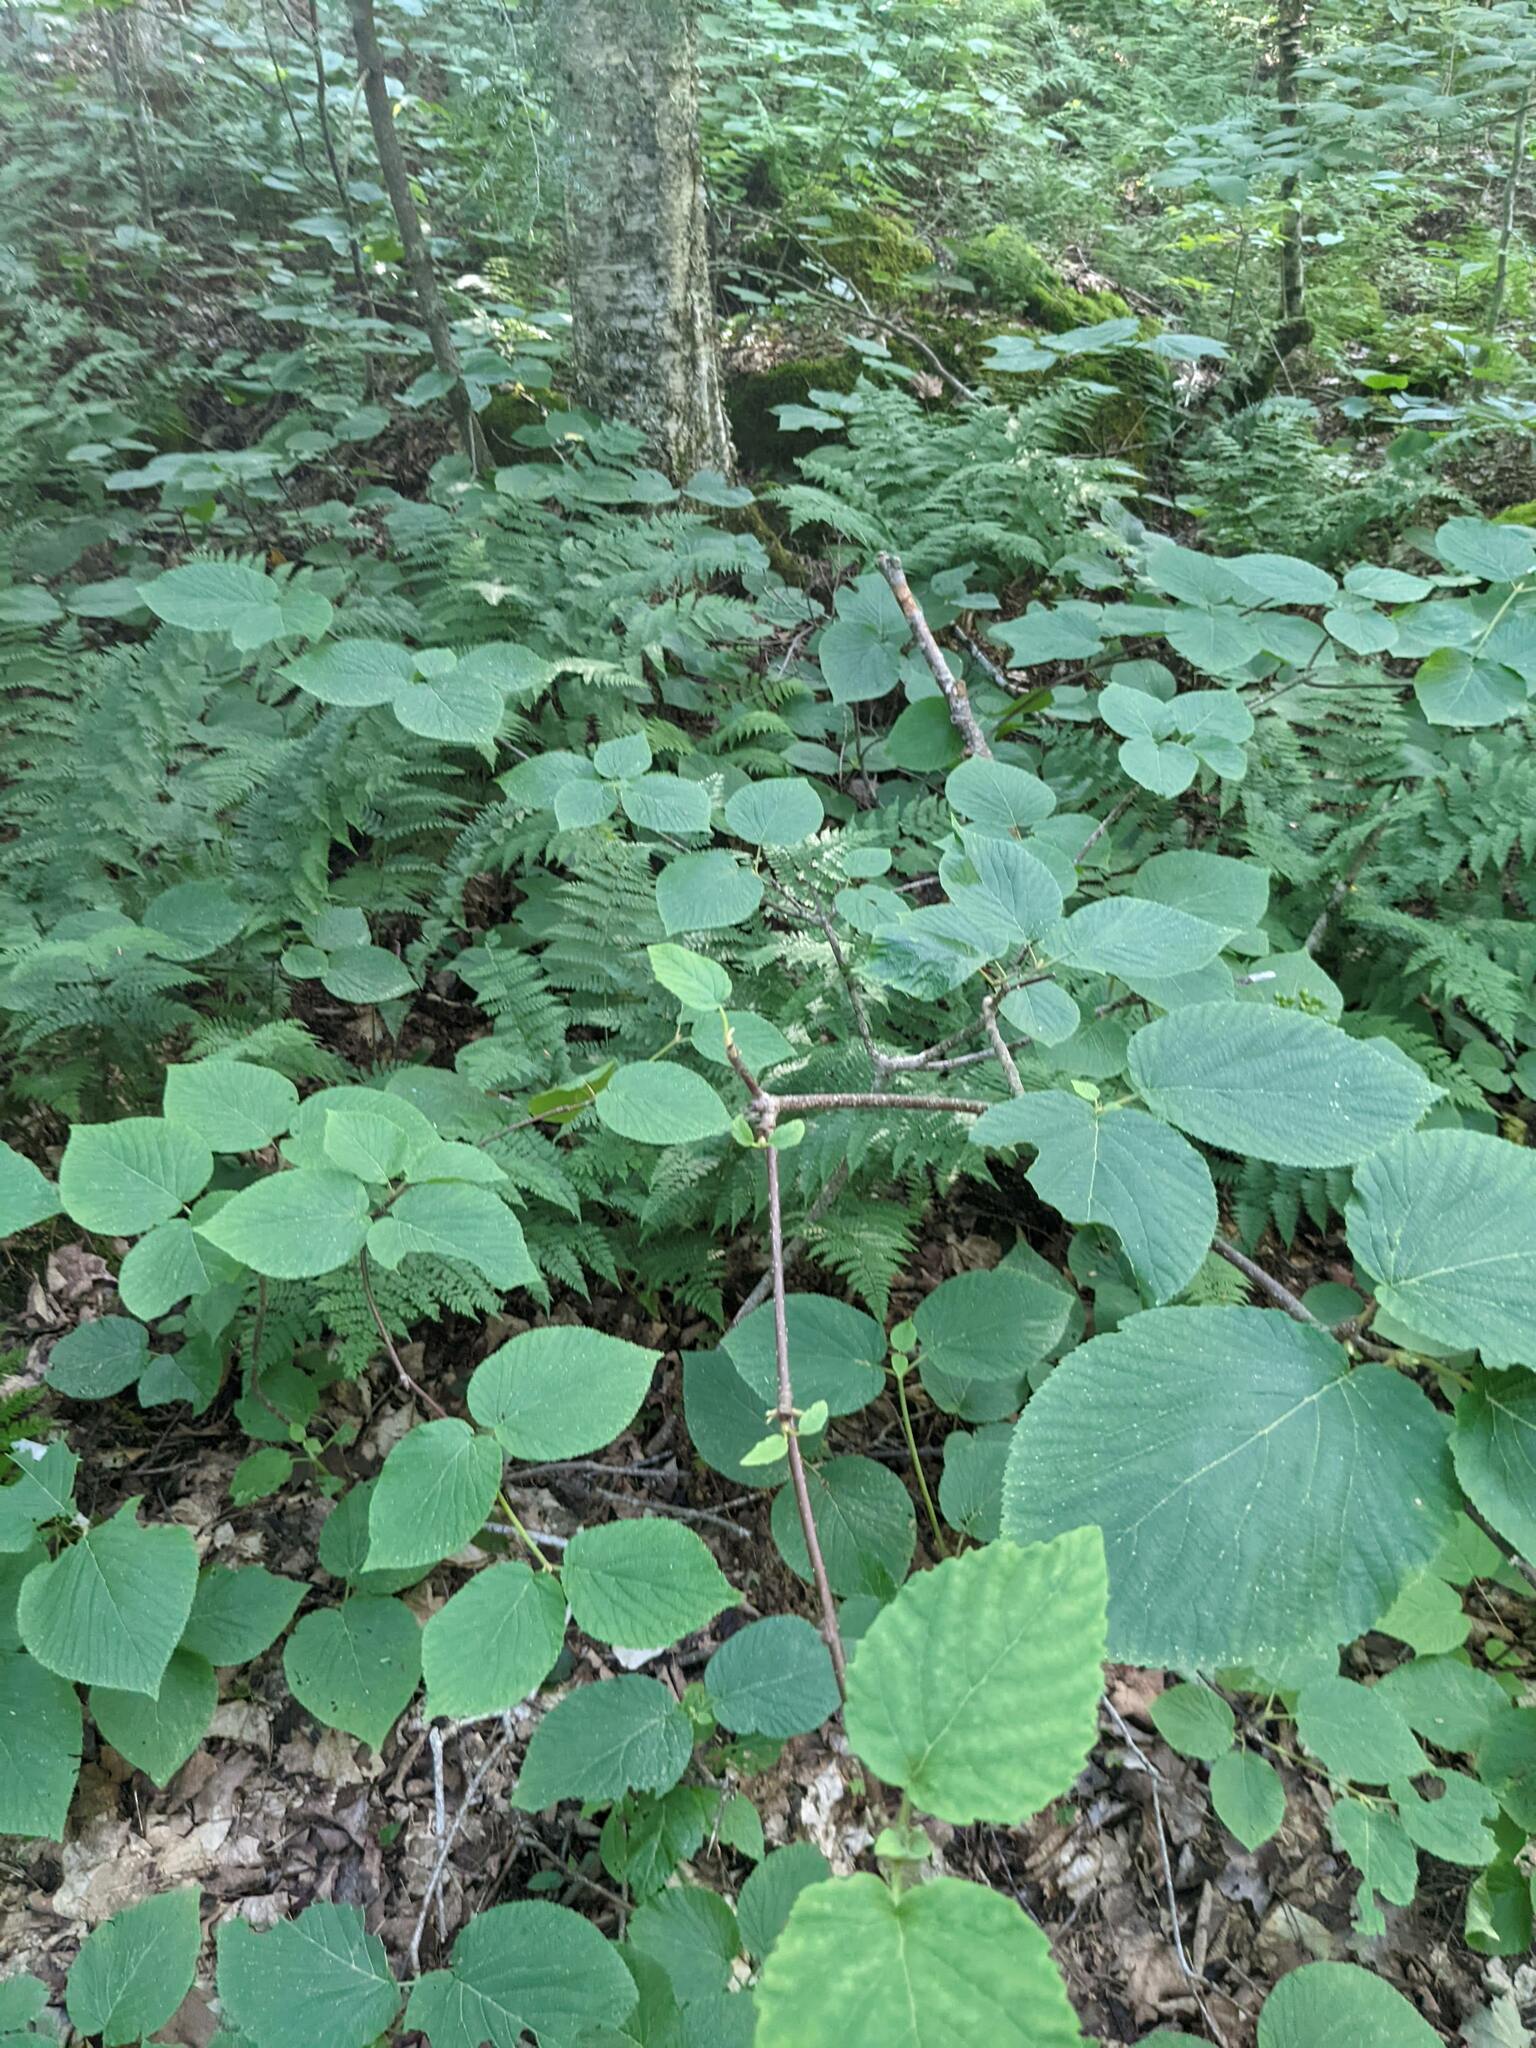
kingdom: Plantae
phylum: Tracheophyta
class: Magnoliopsida
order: Dipsacales
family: Viburnaceae
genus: Viburnum
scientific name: Viburnum lantanoides
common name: Hobblebush
